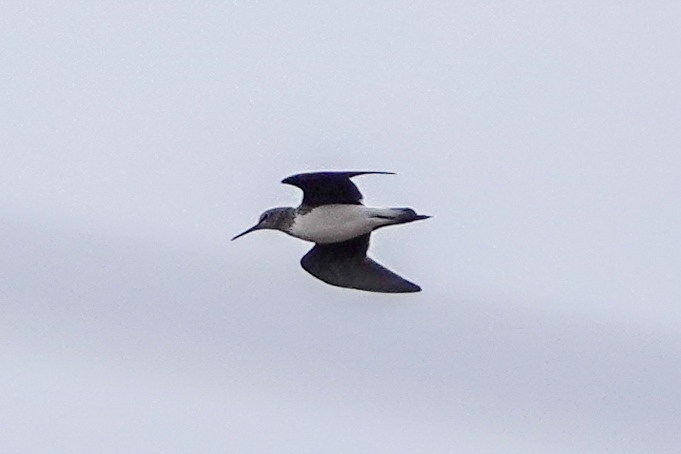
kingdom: Animalia
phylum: Chordata
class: Aves
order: Charadriiformes
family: Scolopacidae
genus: Tringa
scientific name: Tringa ochropus
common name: Green sandpiper
